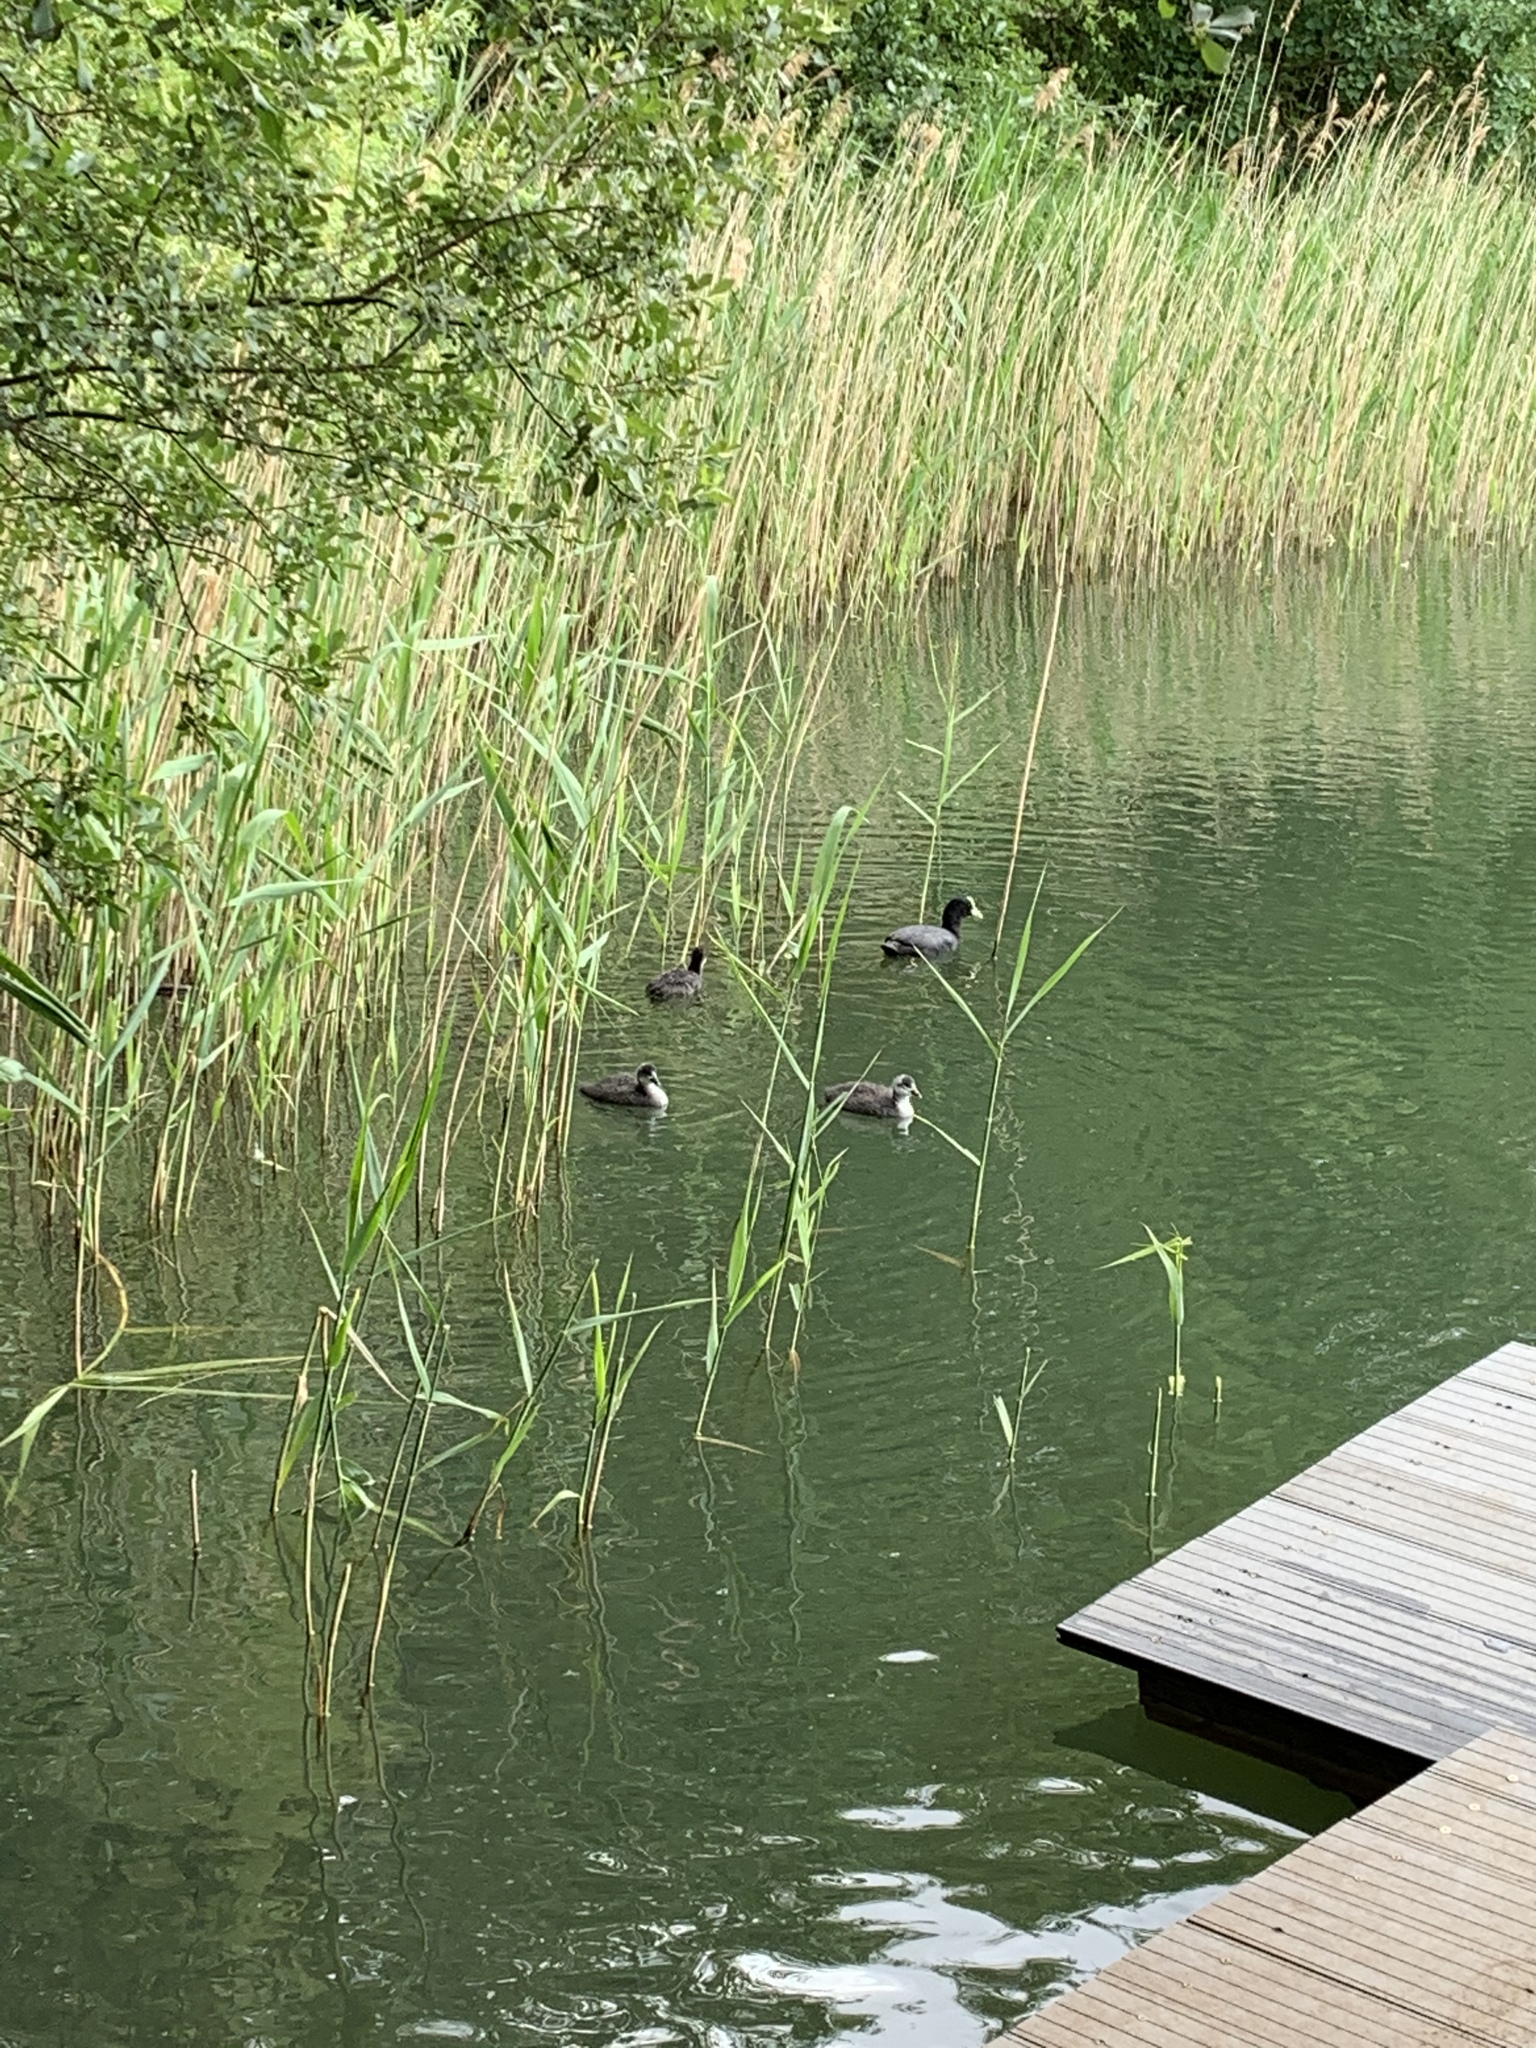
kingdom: Animalia
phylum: Chordata
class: Aves
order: Gruiformes
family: Rallidae
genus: Fulica
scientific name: Fulica atra
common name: Eurasian coot
